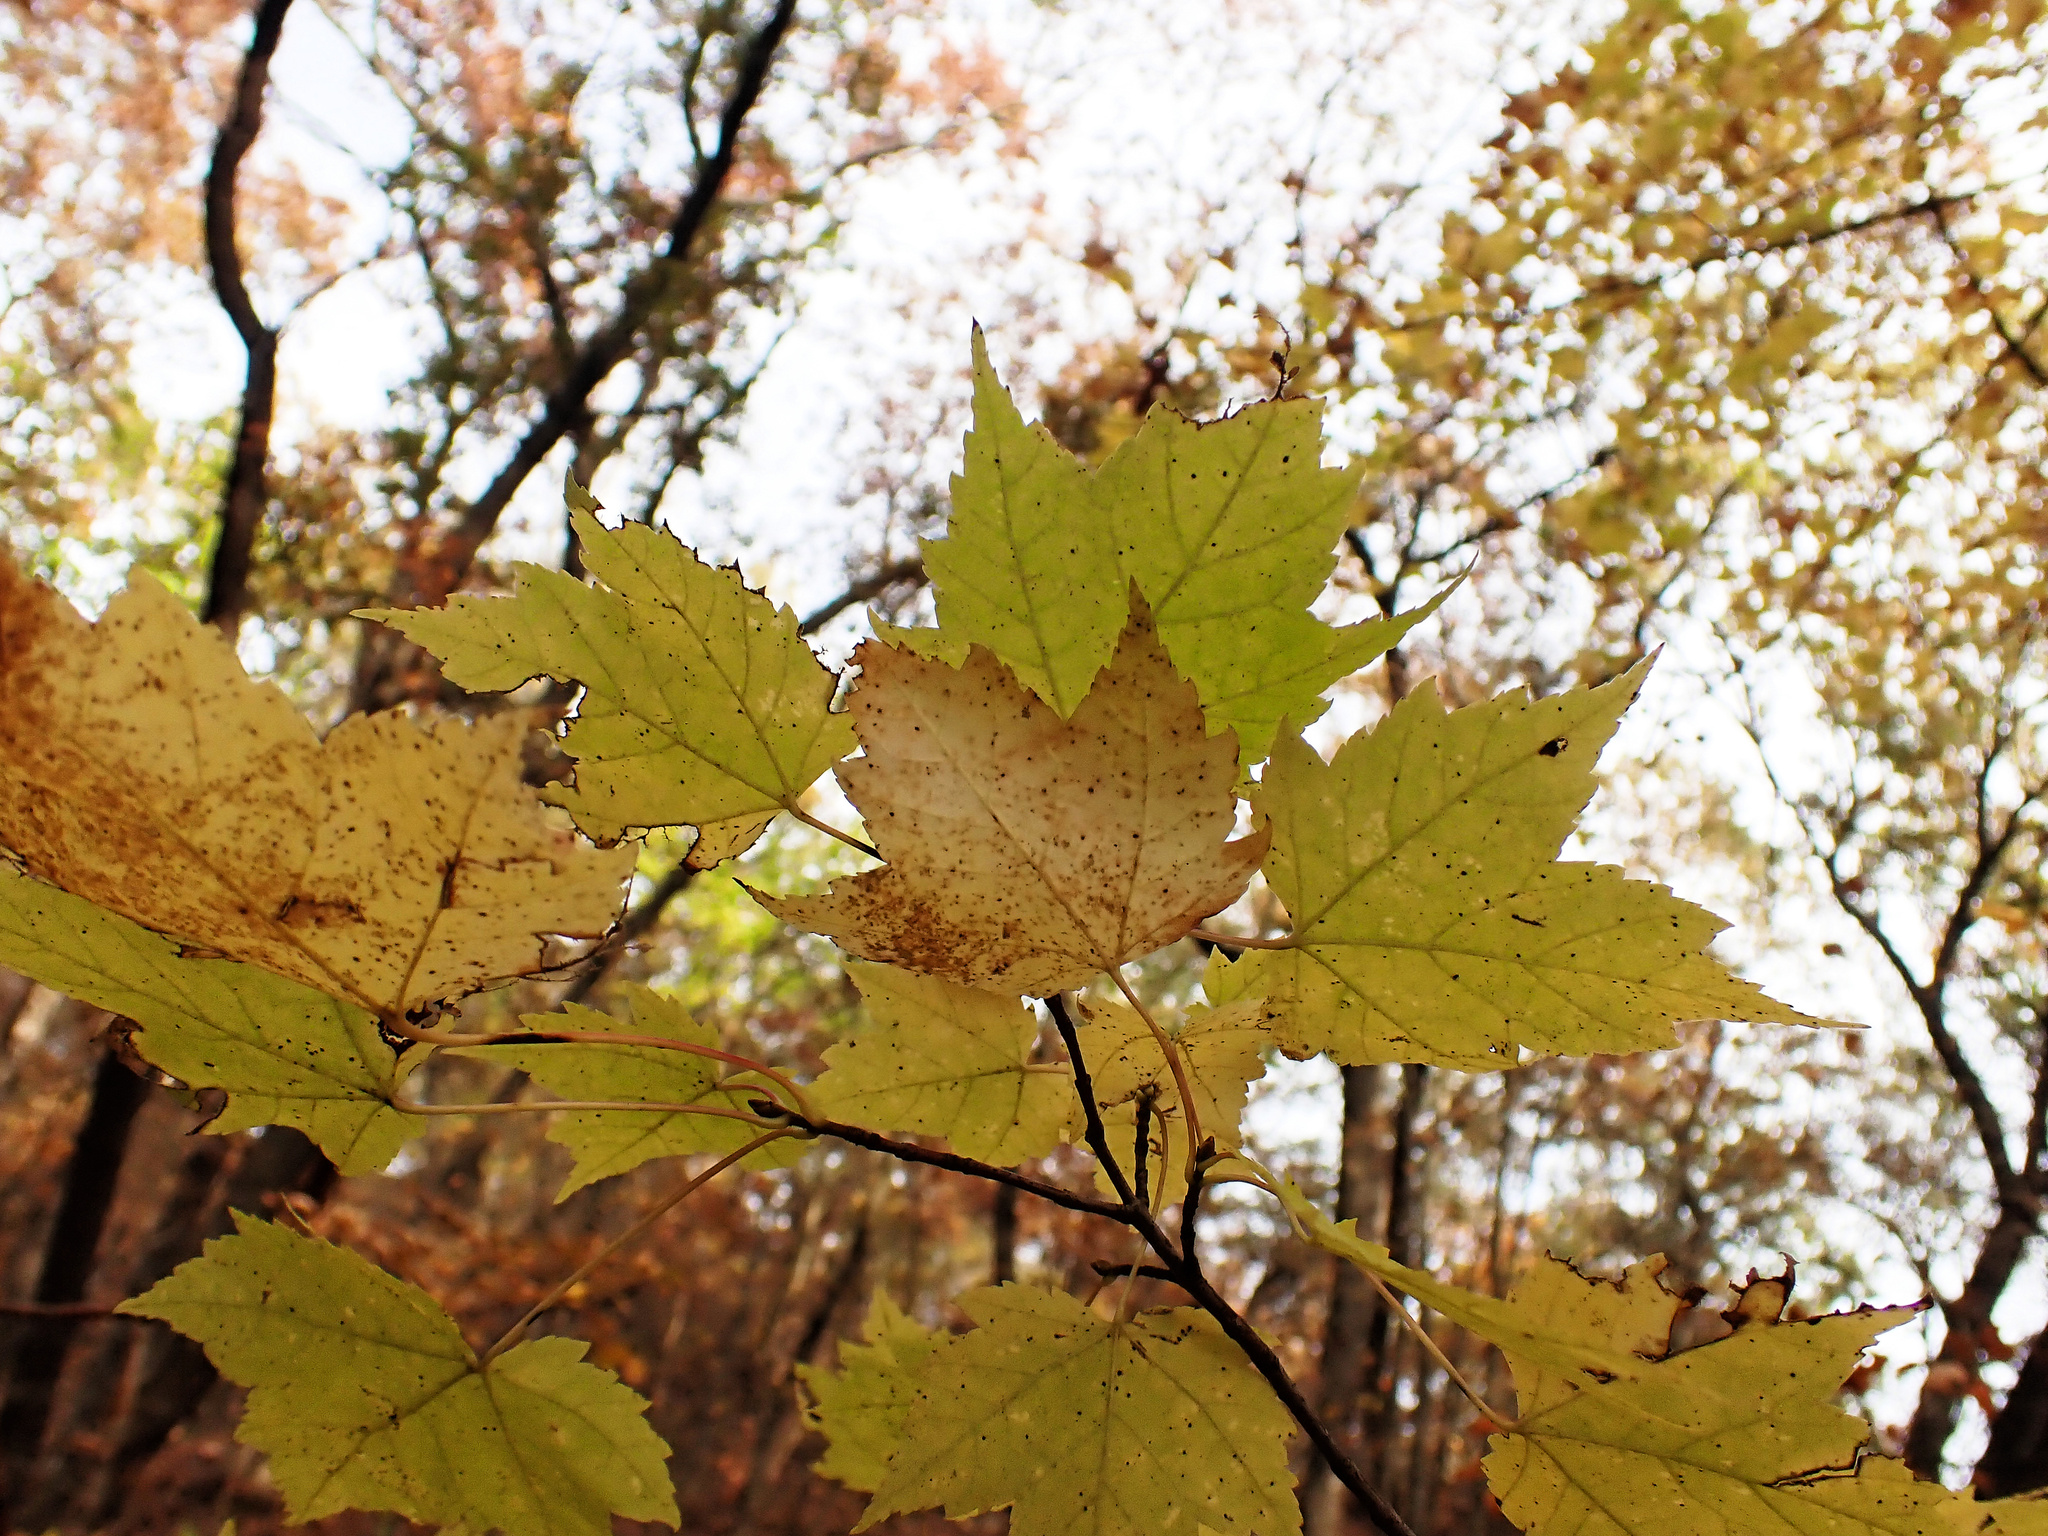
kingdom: Plantae
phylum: Tracheophyta
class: Magnoliopsida
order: Sapindales
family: Sapindaceae
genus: Acer
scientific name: Acer rubrum
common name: Red maple
